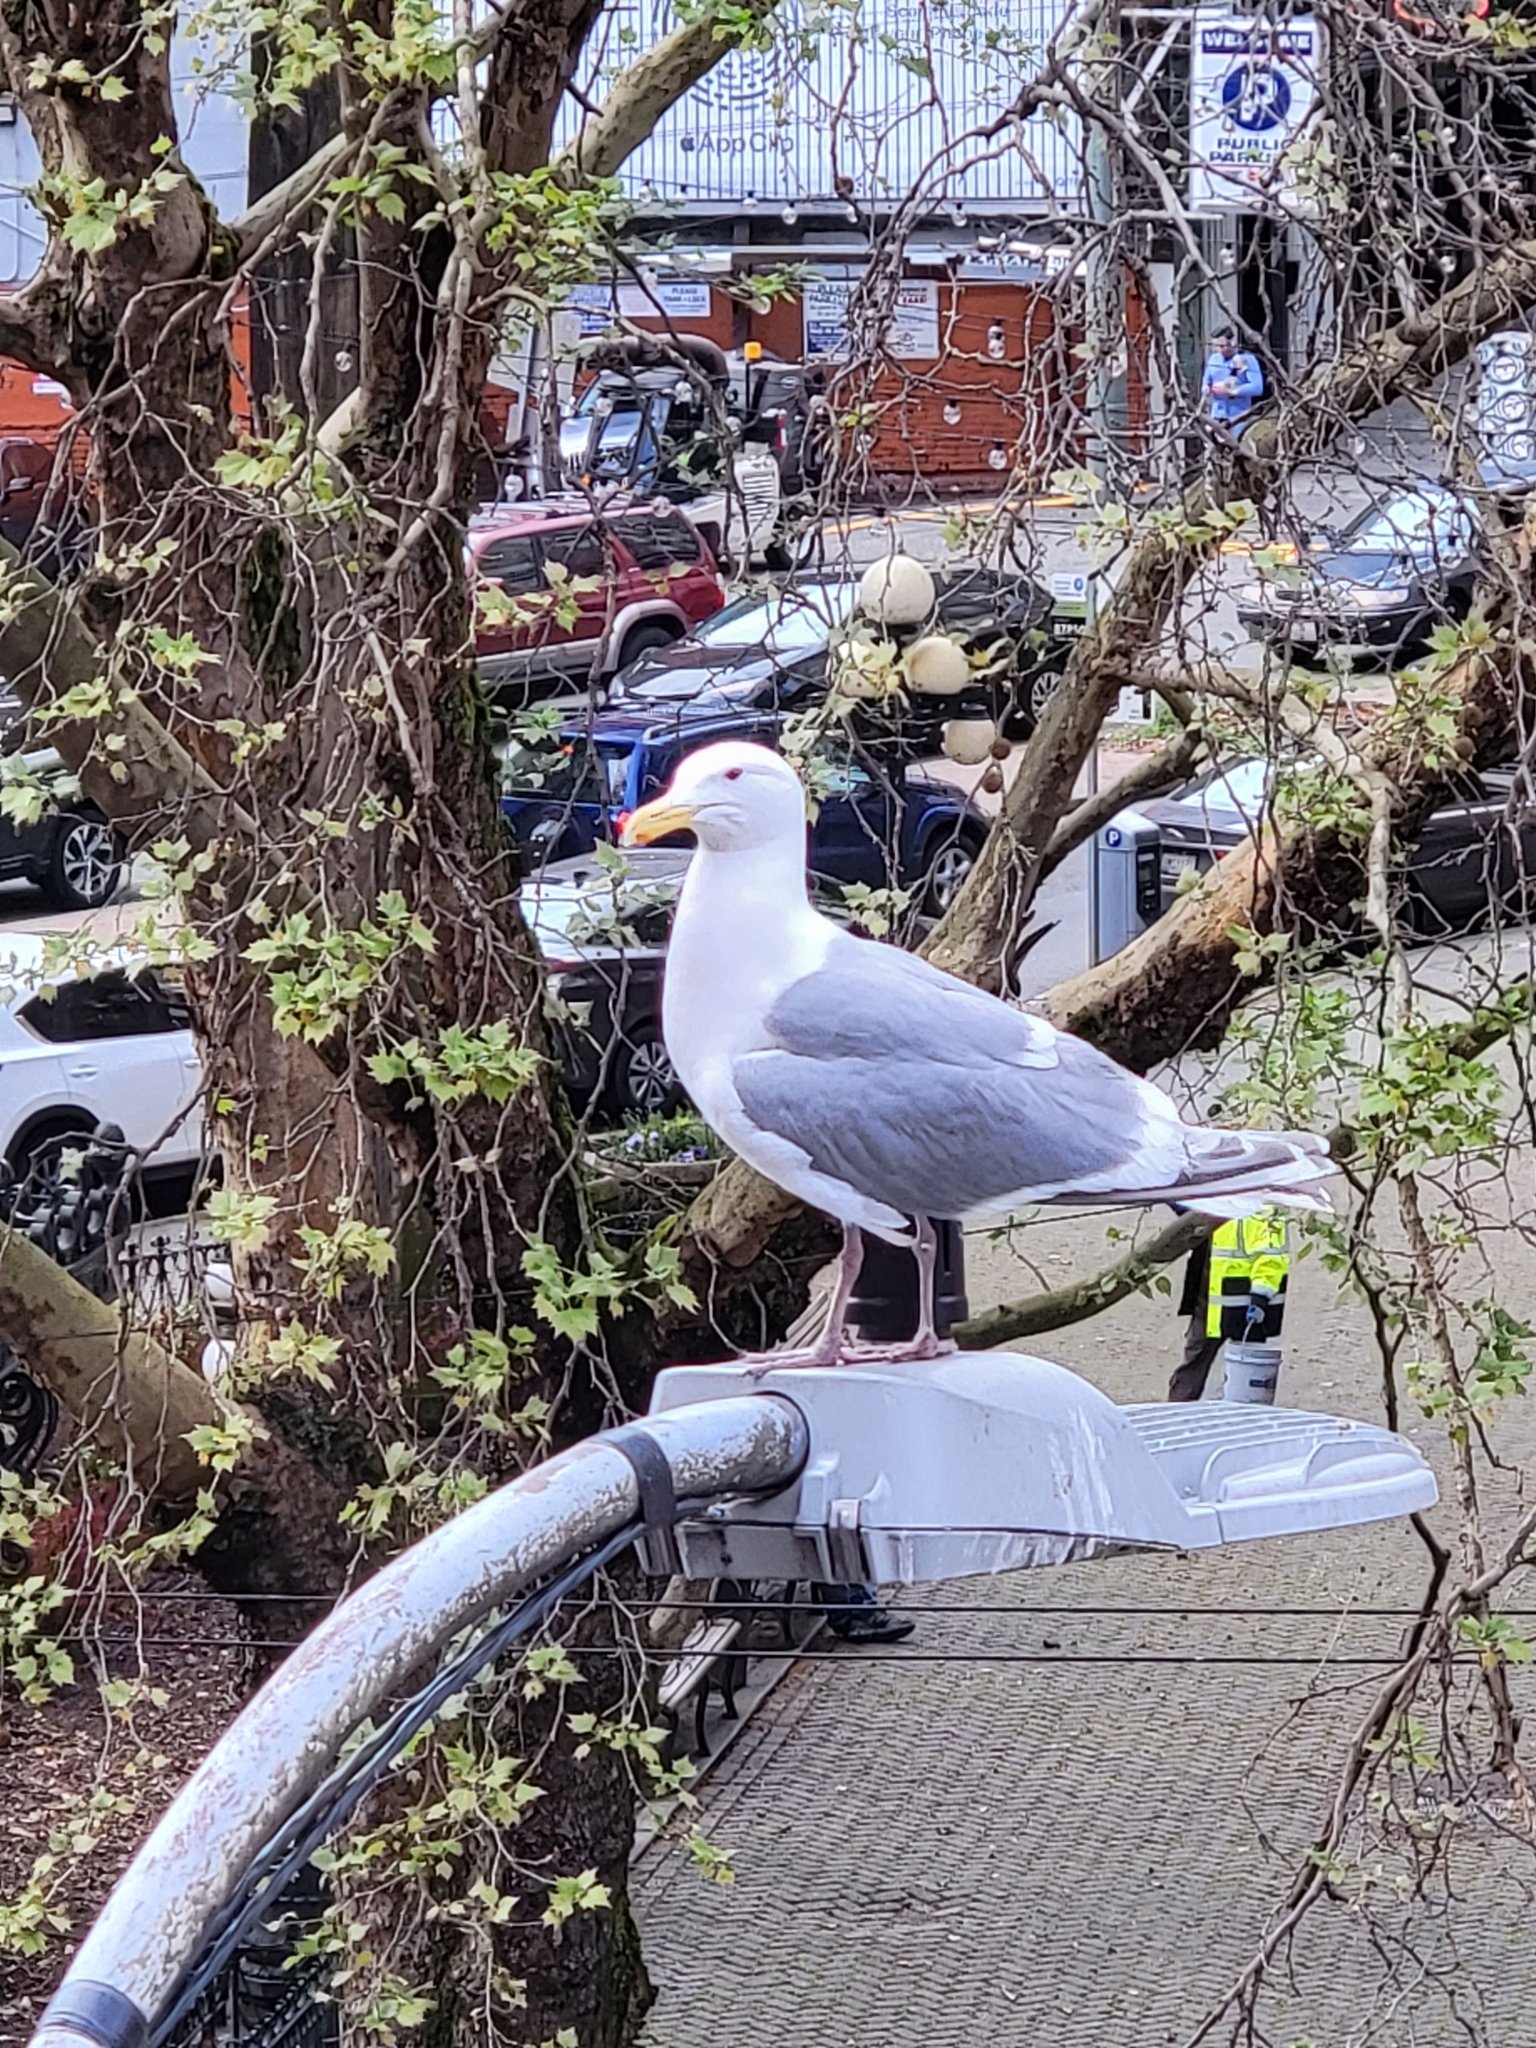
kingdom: Animalia
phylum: Chordata
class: Aves
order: Charadriiformes
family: Laridae
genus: Larus
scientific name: Larus
